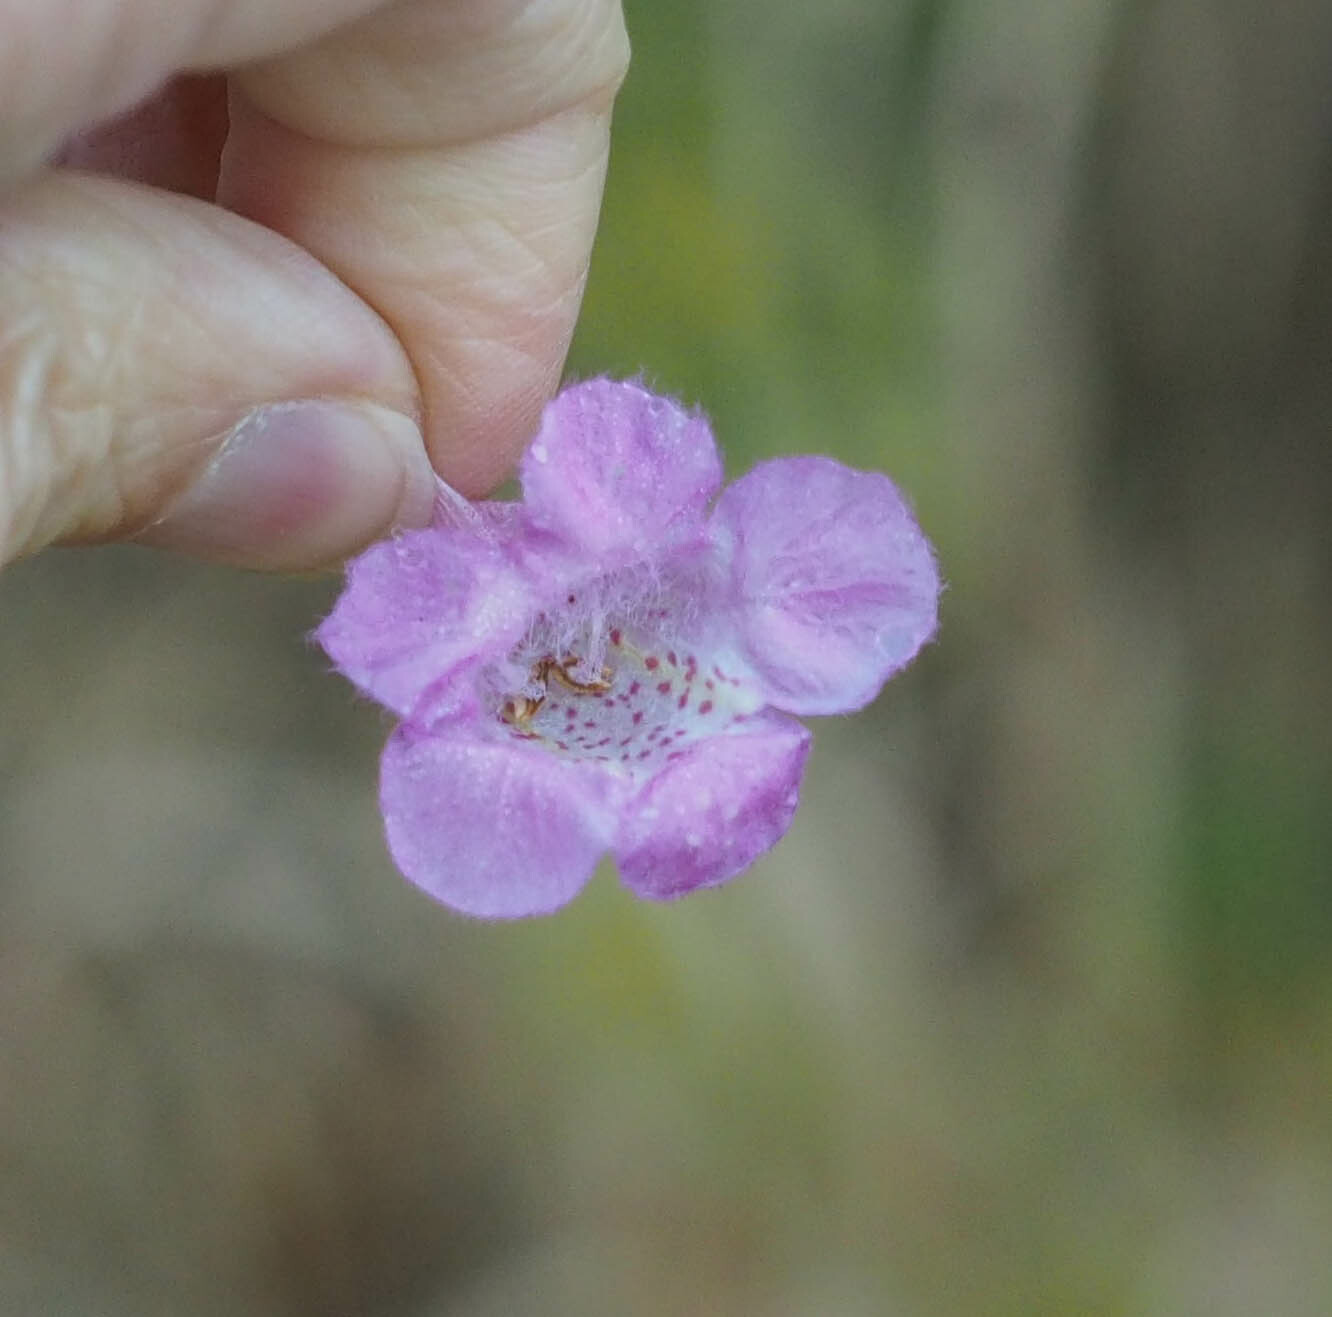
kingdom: Plantae
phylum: Tracheophyta
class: Magnoliopsida
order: Lamiales
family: Orobanchaceae
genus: Agalinis
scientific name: Agalinis purpurea
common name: Purple false foxglove
